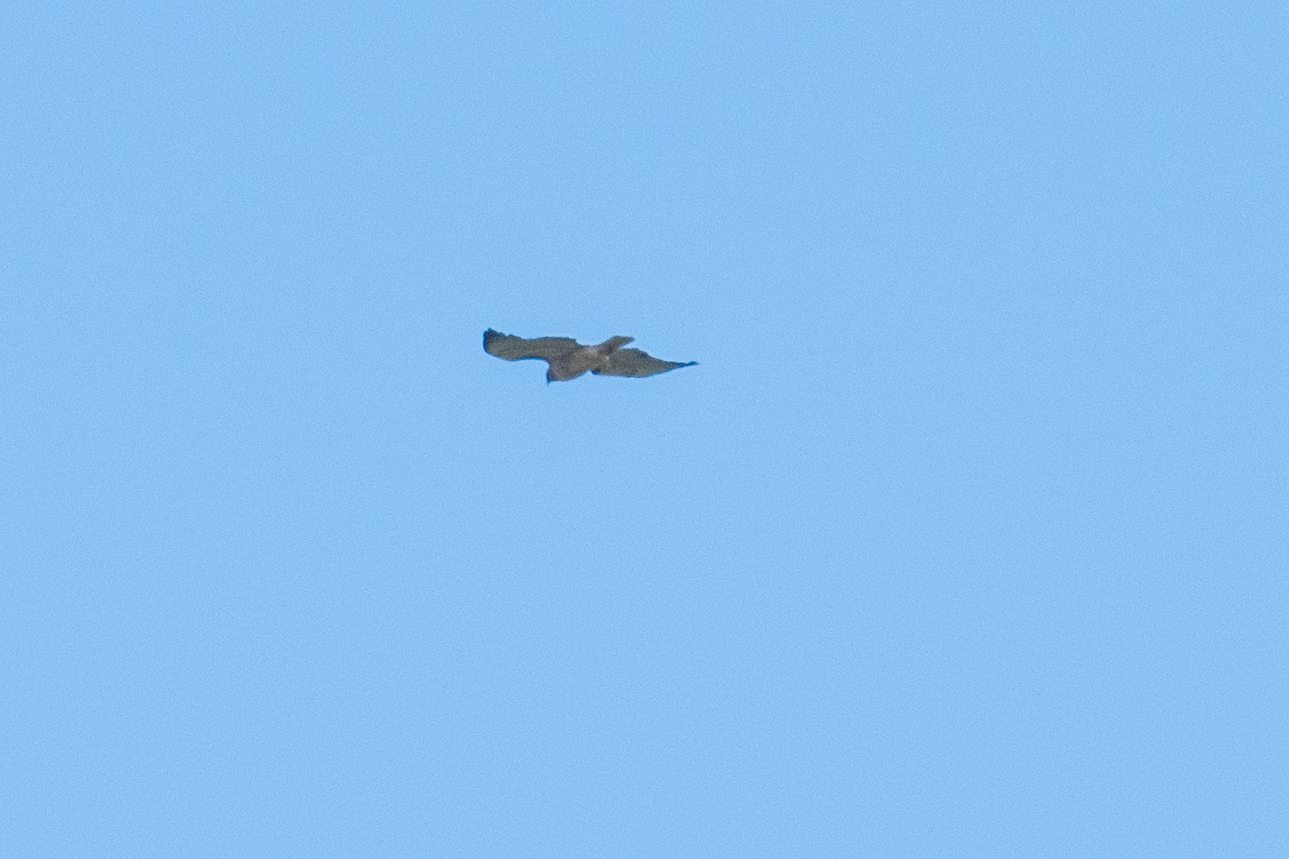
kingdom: Animalia
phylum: Chordata
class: Aves
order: Accipitriformes
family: Accipitridae
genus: Buteo
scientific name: Buteo jamaicensis
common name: Red-tailed hawk
